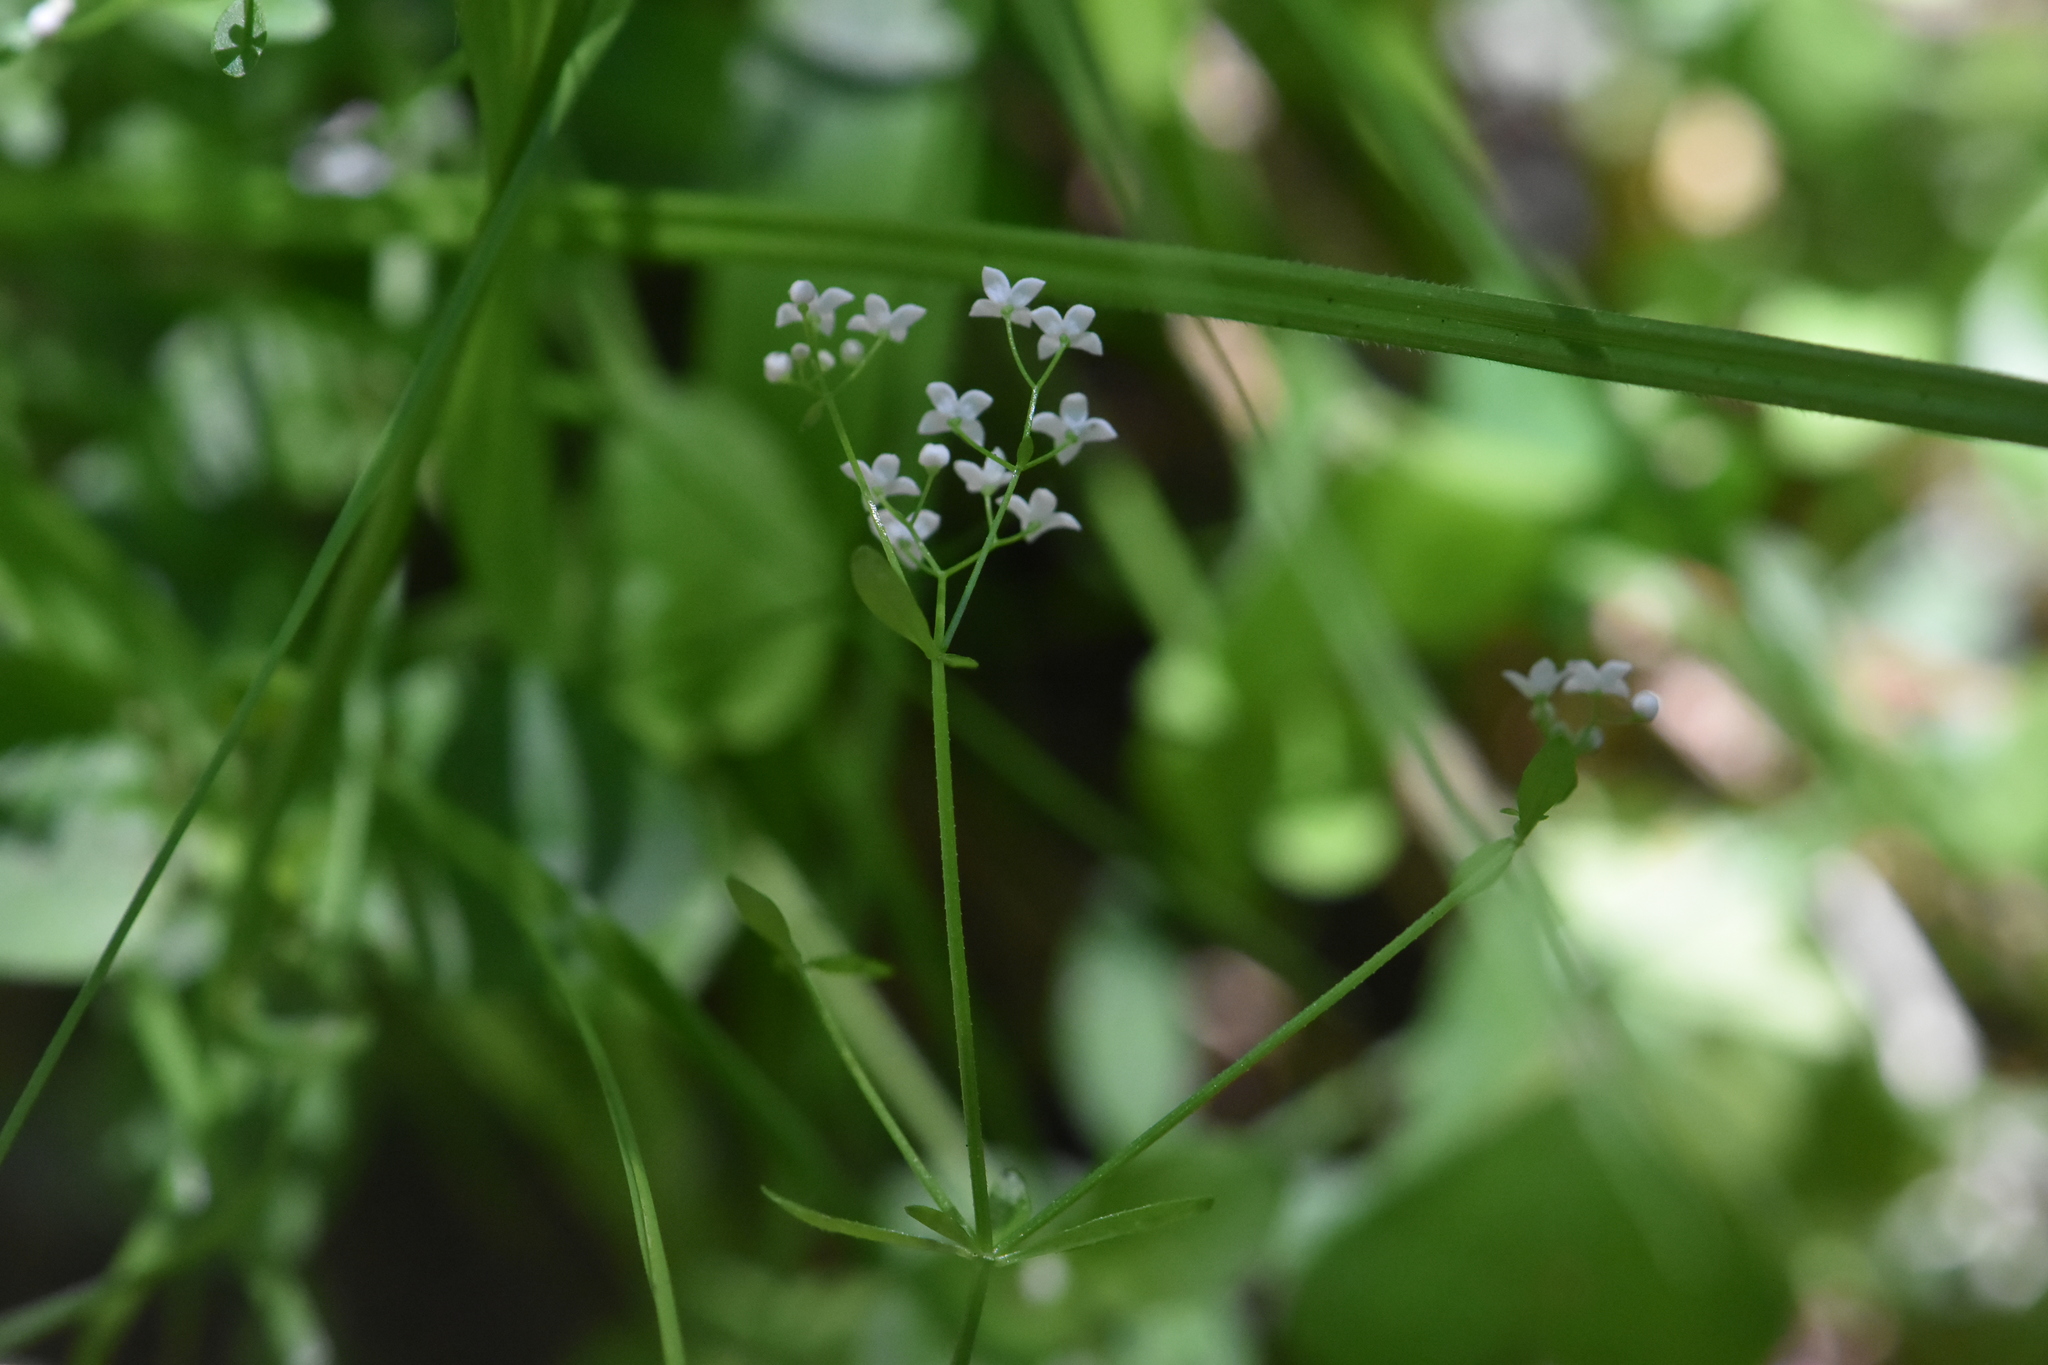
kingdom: Plantae
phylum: Tracheophyta
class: Magnoliopsida
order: Gentianales
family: Rubiaceae
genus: Galium
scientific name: Galium palustre
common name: Common marsh-bedstraw
